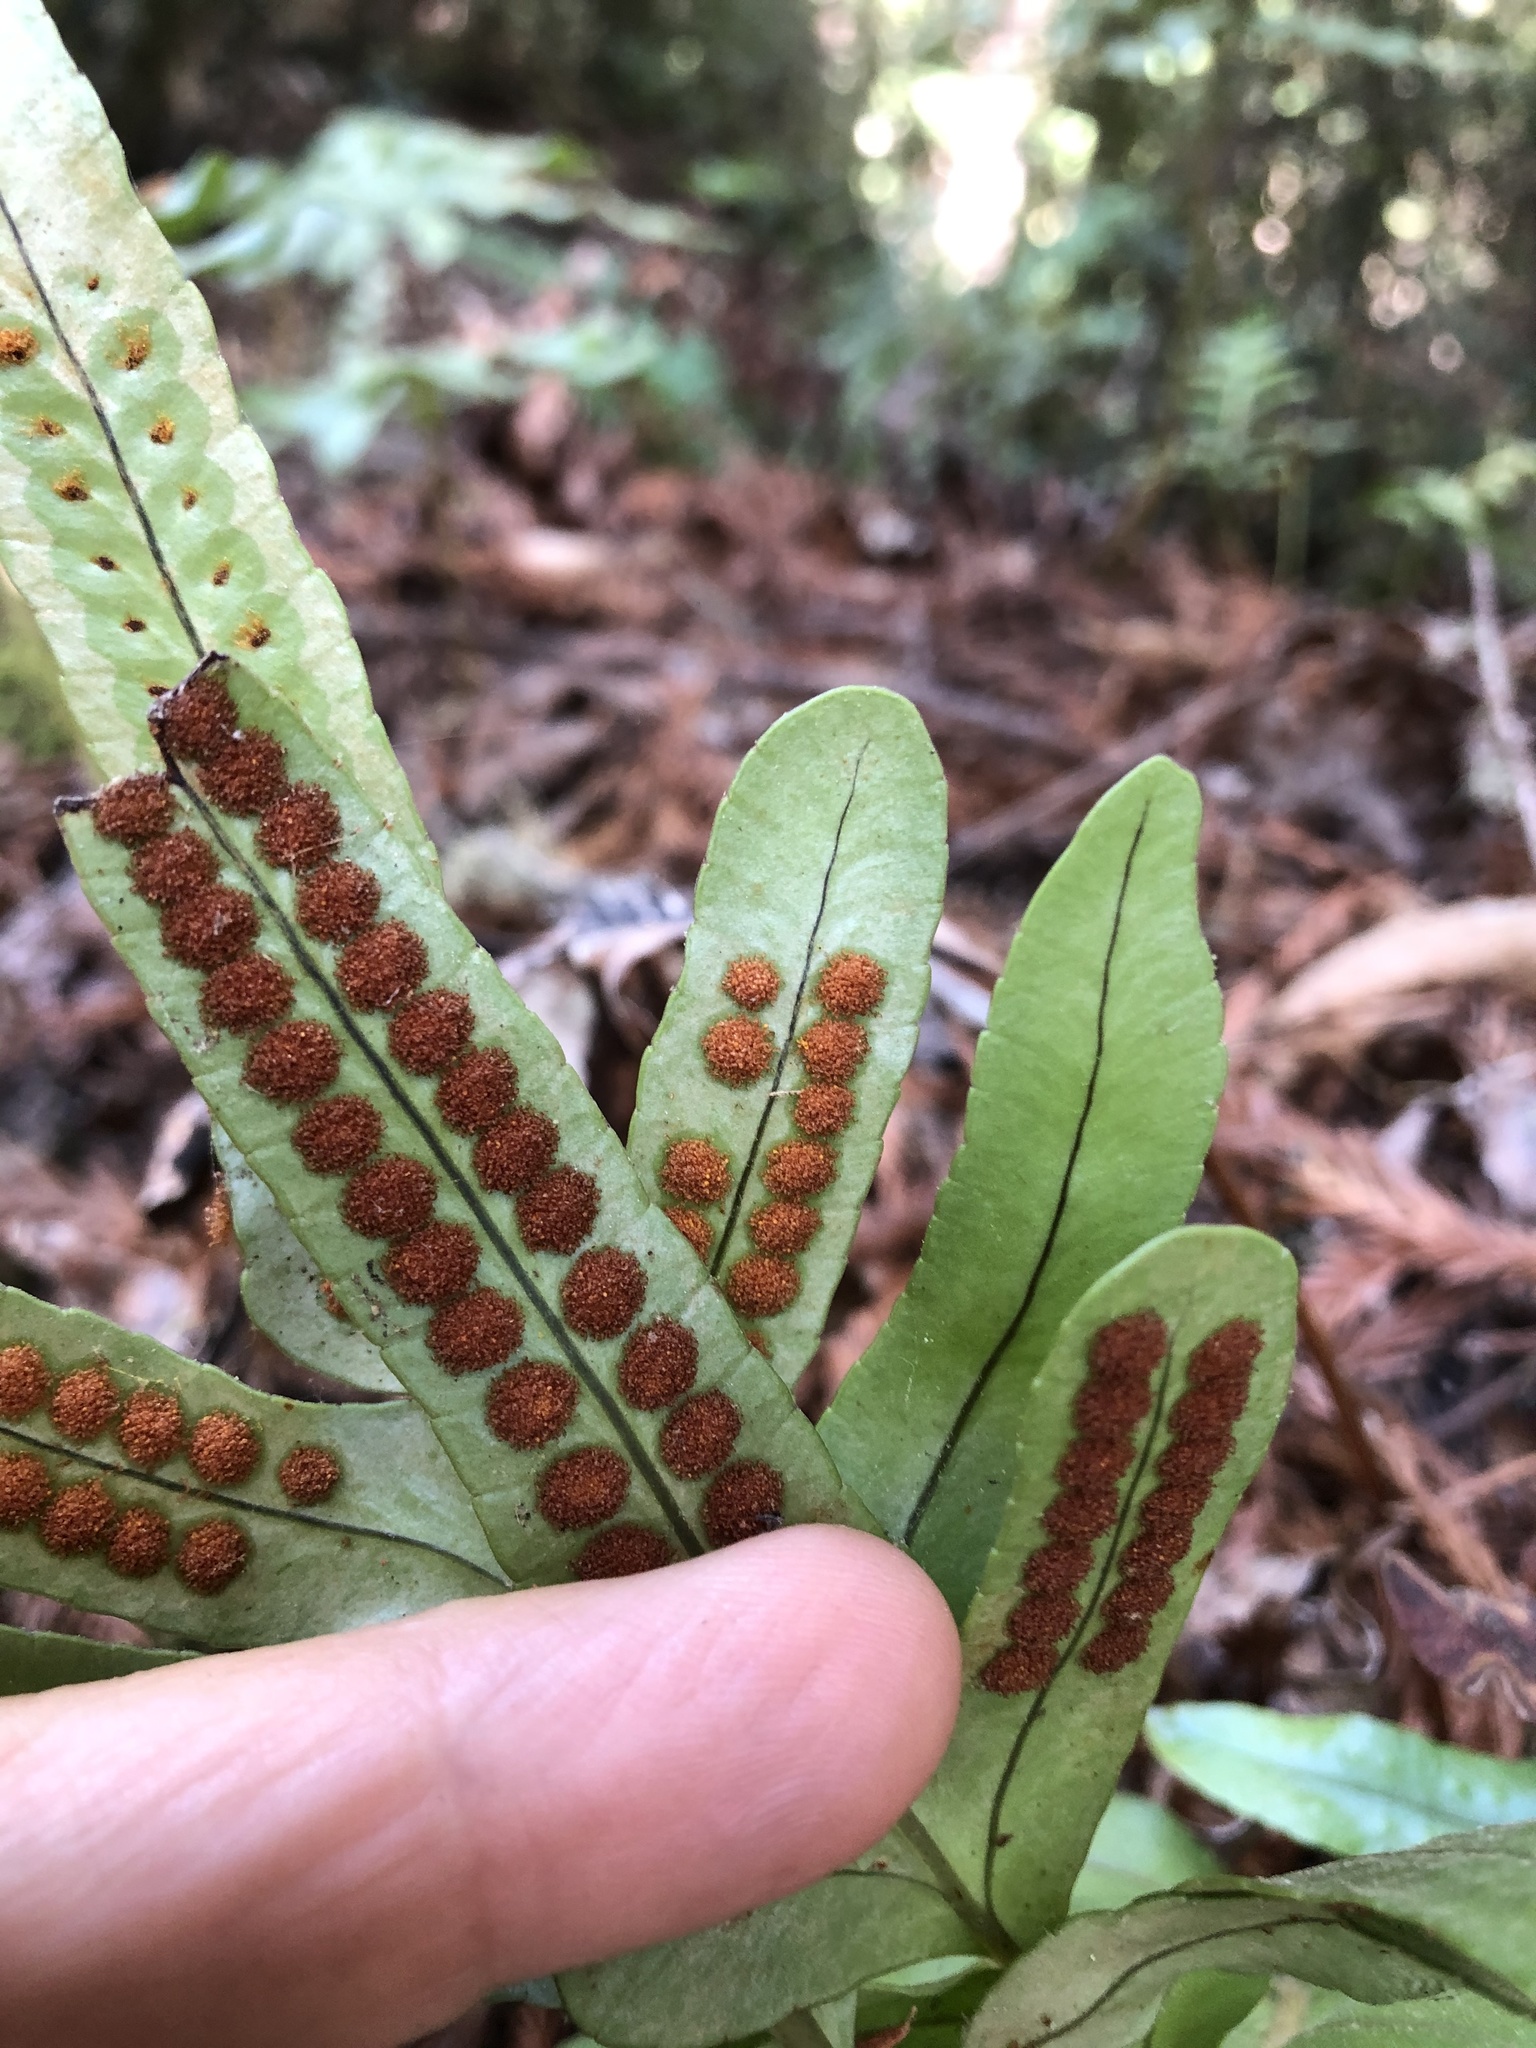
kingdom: Plantae
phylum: Tracheophyta
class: Polypodiopsida
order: Polypodiales
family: Polypodiaceae
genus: Polypodium
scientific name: Polypodium scouleri
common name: Scouler's polypody
